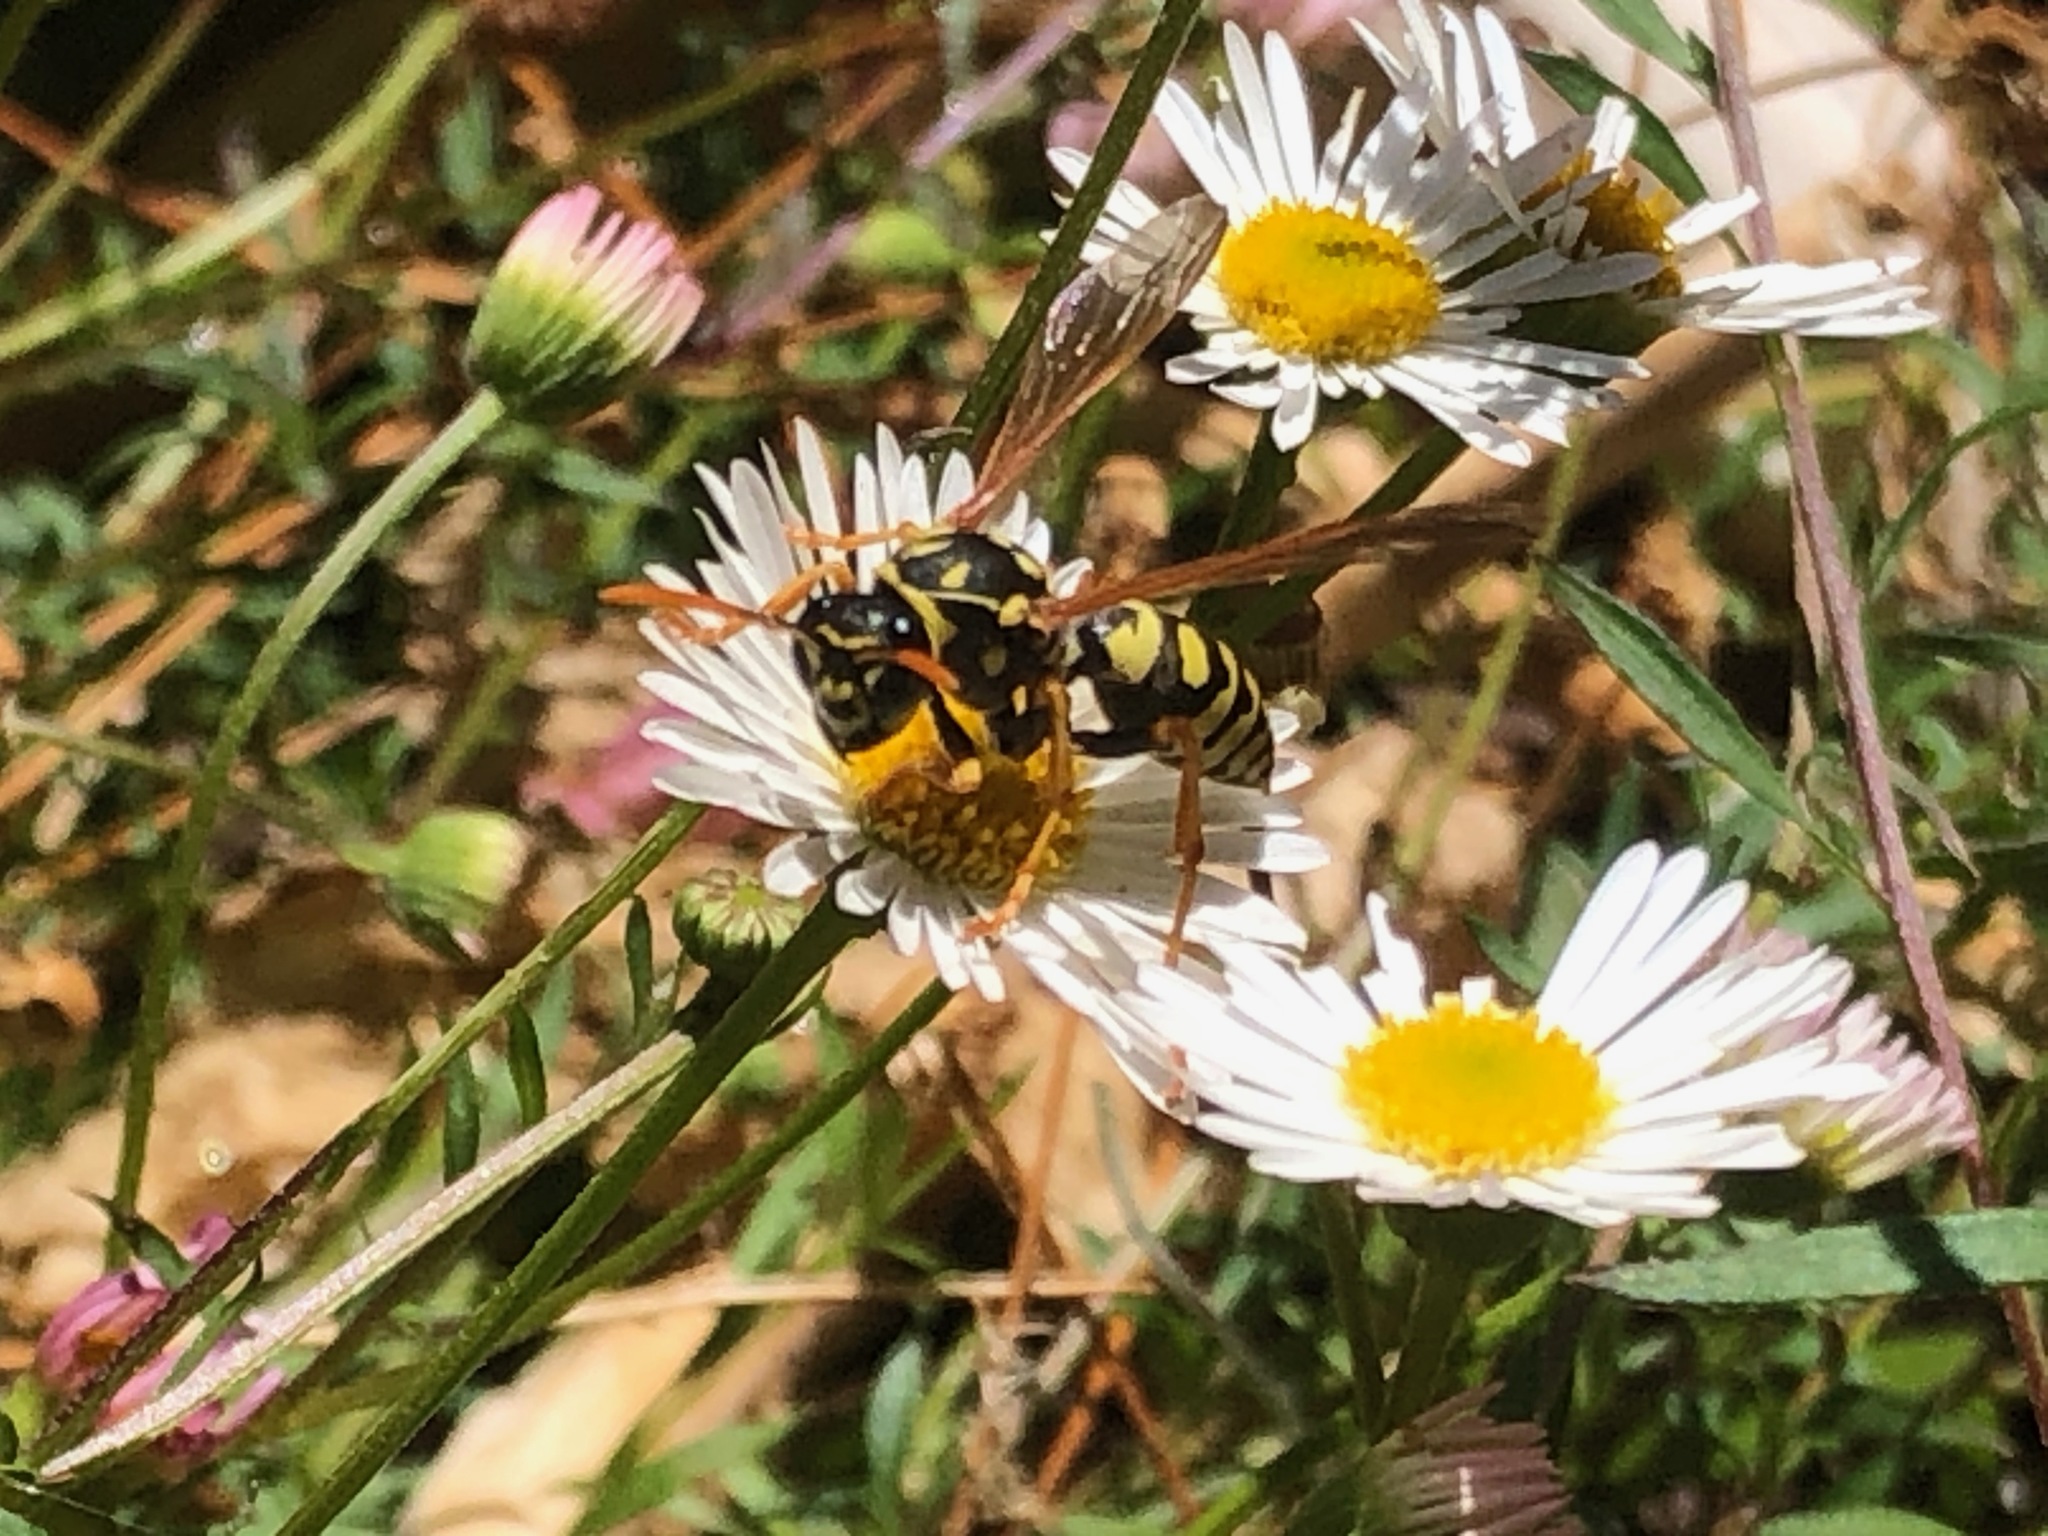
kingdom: Animalia
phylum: Arthropoda
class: Insecta
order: Hymenoptera
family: Eumenidae
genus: Polistes
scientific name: Polistes dominula
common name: Paper wasp
